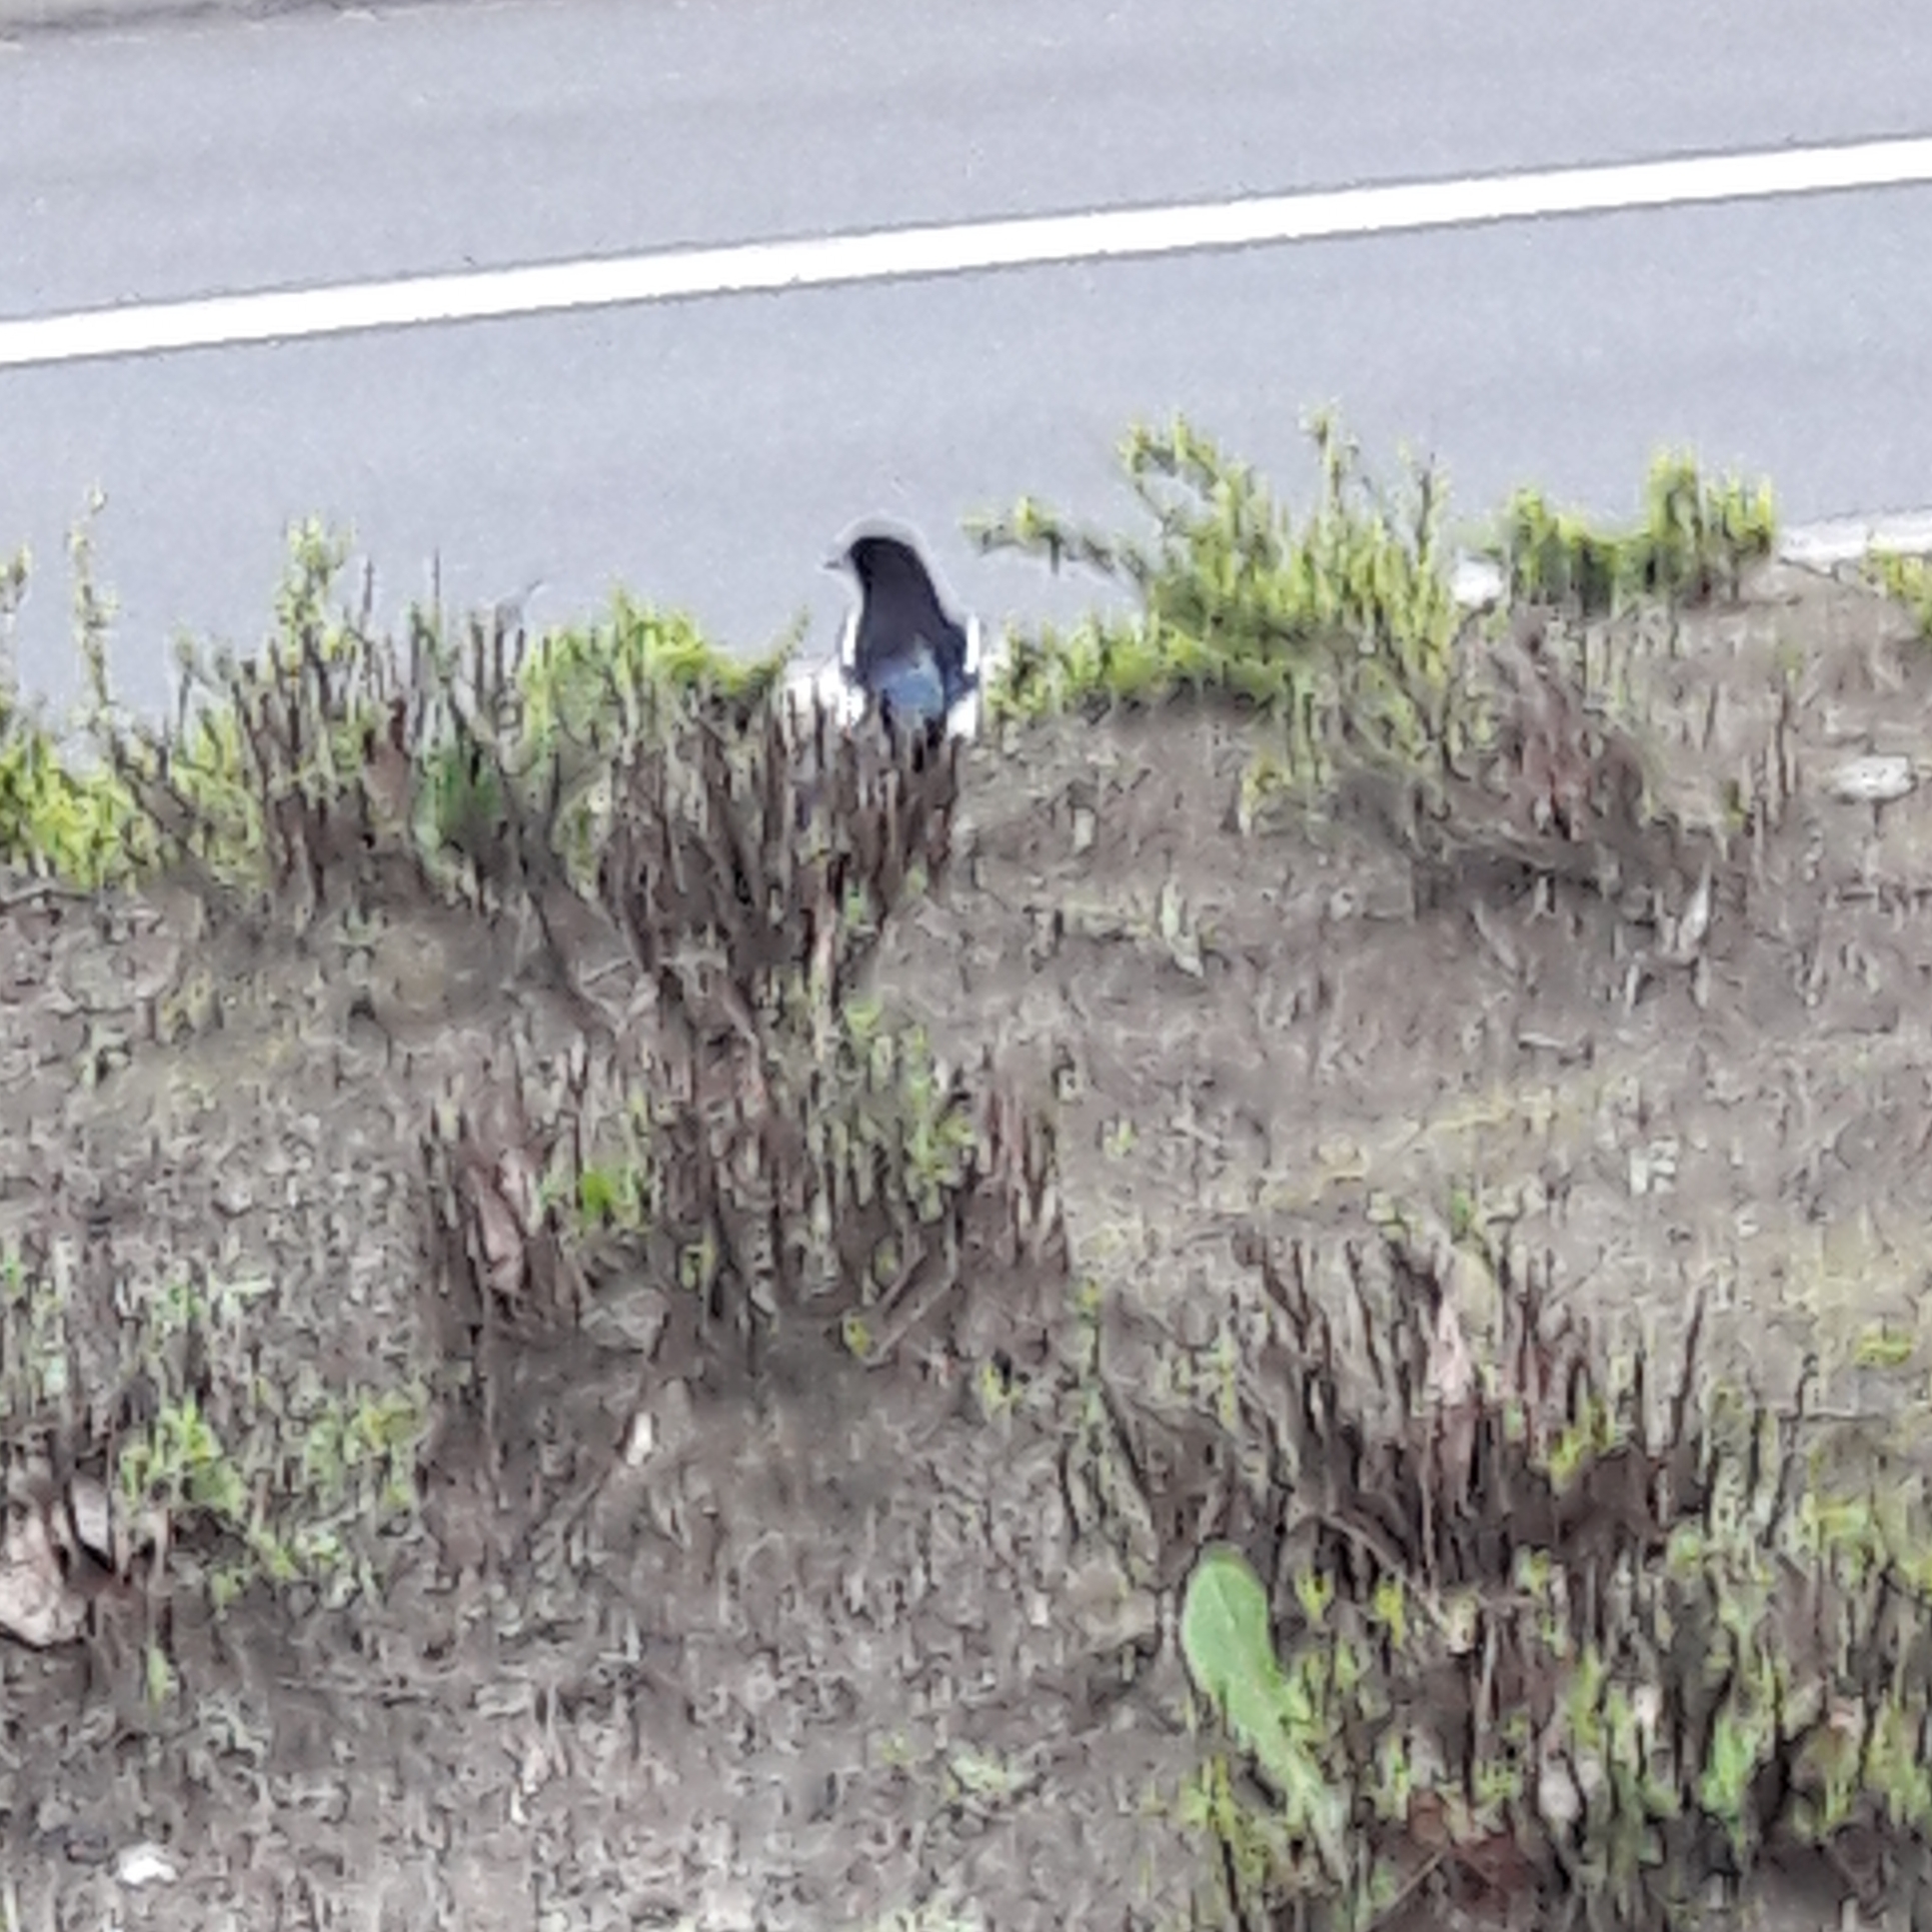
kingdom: Animalia
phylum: Chordata
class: Aves
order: Passeriformes
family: Corvidae
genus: Pica
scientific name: Pica pica
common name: Eurasian magpie
